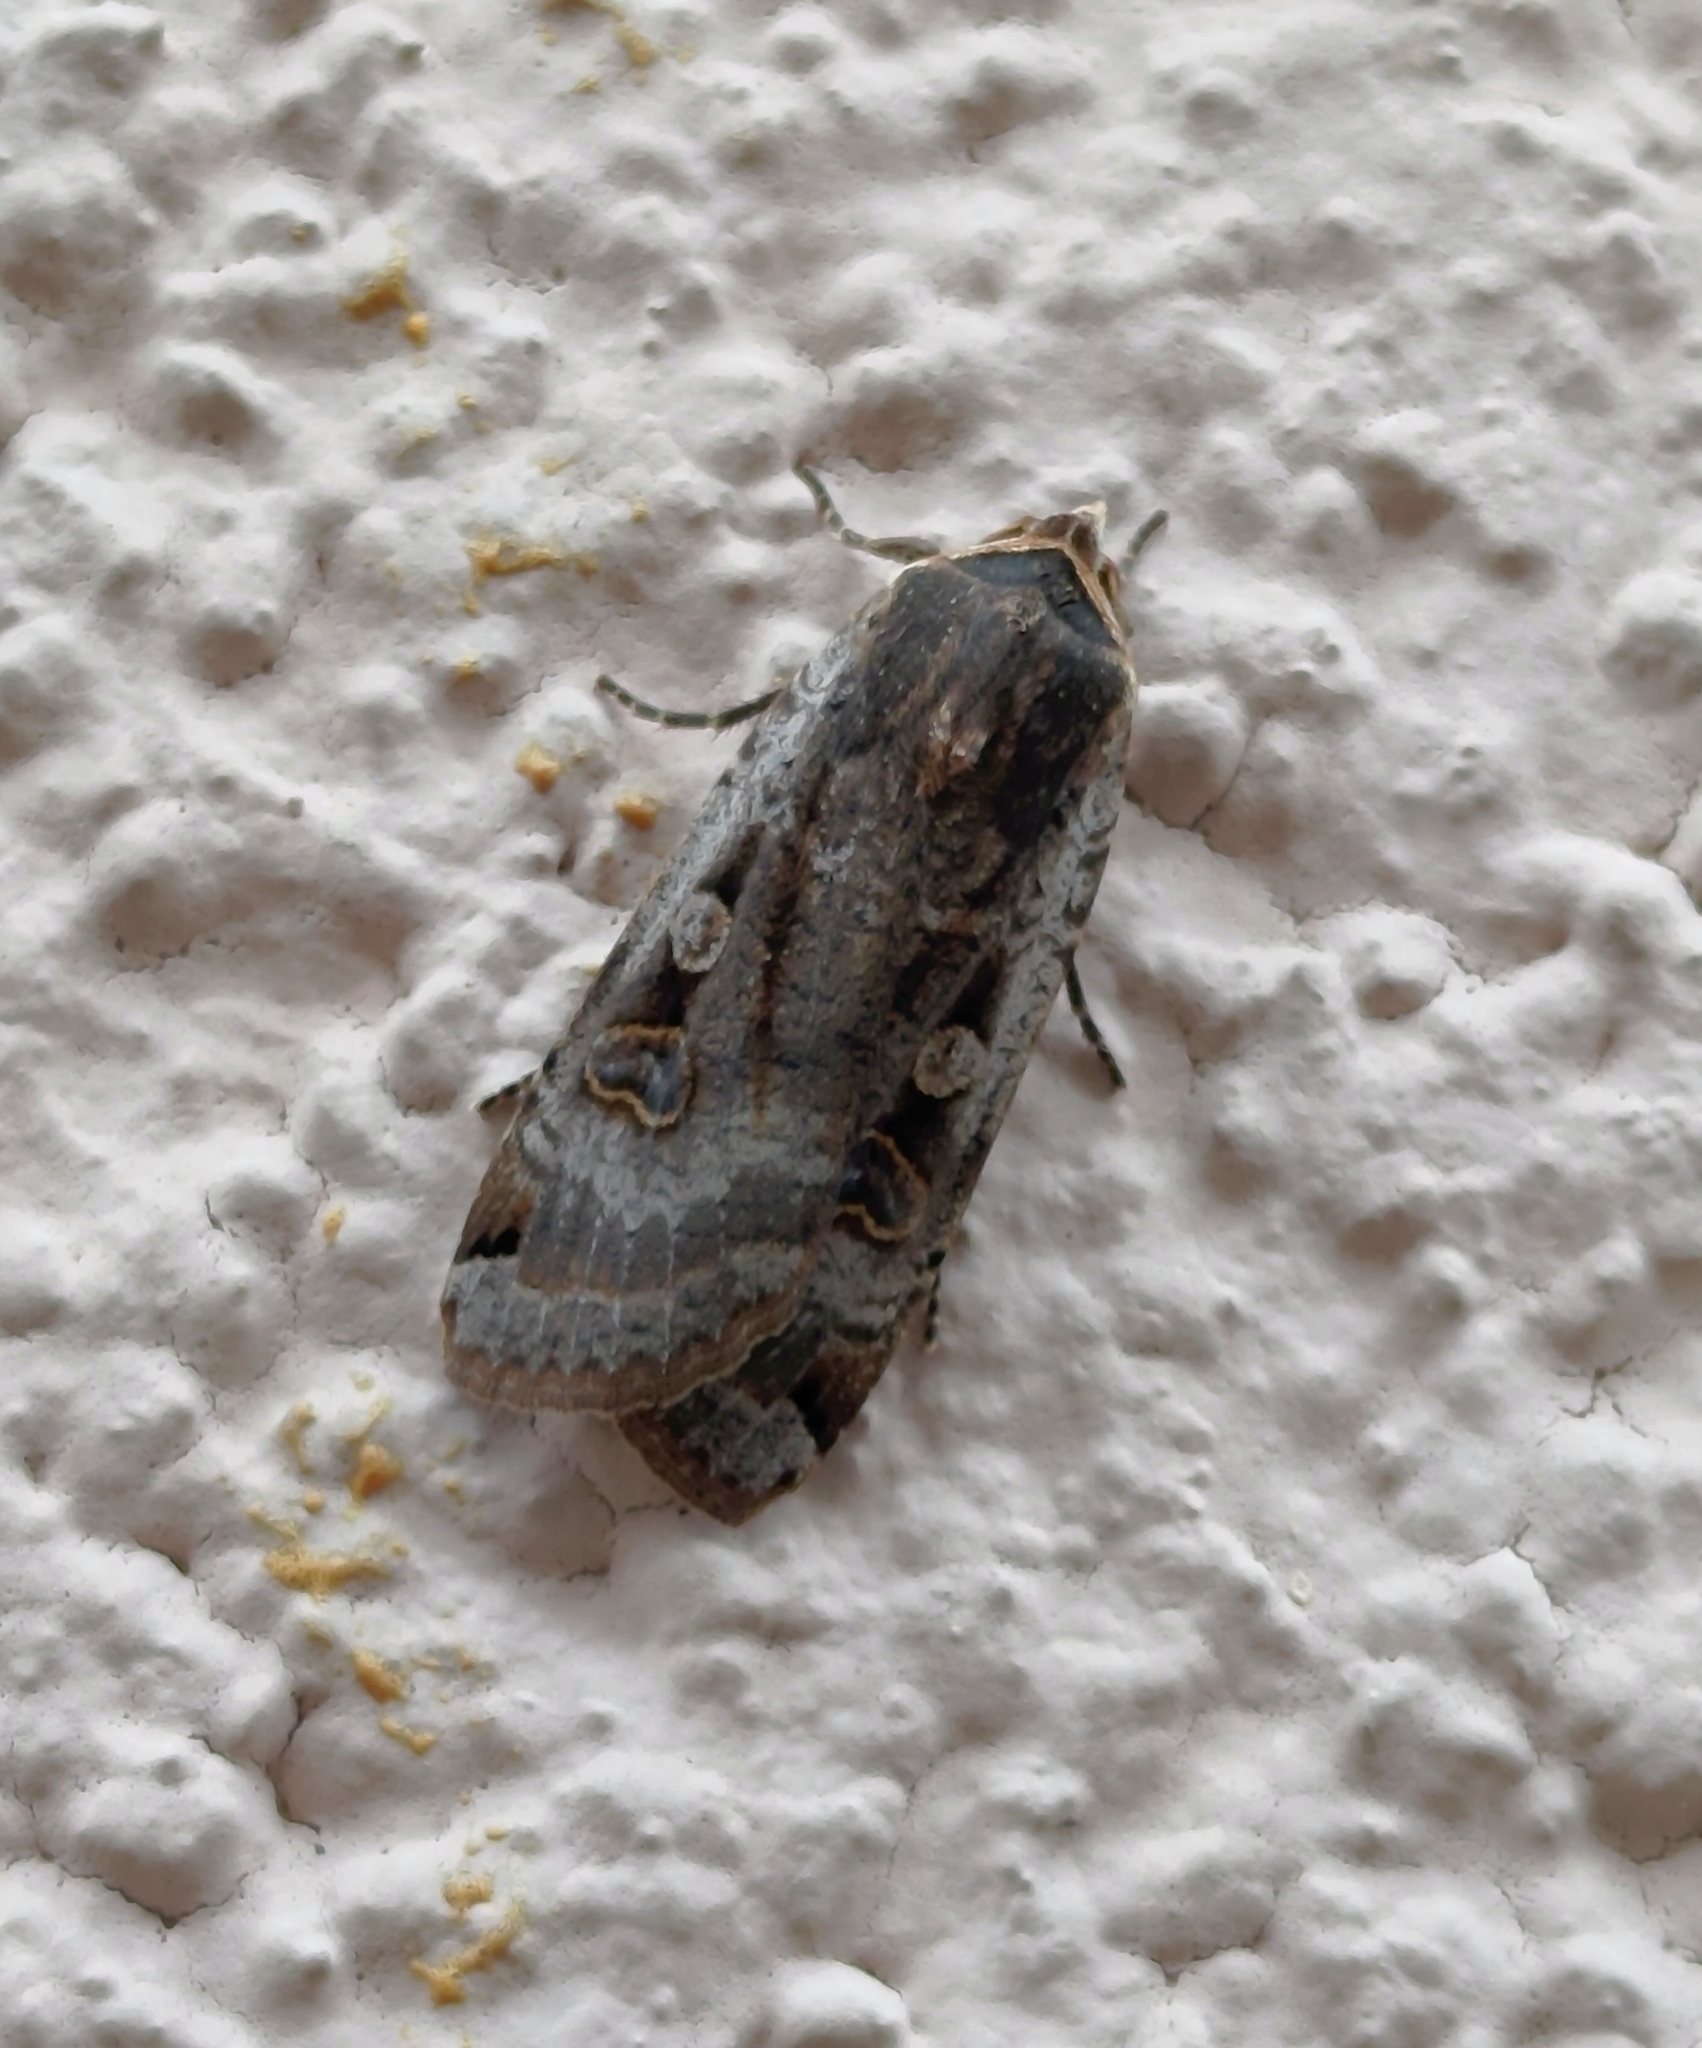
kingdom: Animalia
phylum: Arthropoda
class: Insecta
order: Lepidoptera
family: Noctuidae
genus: Noctua
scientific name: Noctua pronuba
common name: Large yellow underwing
